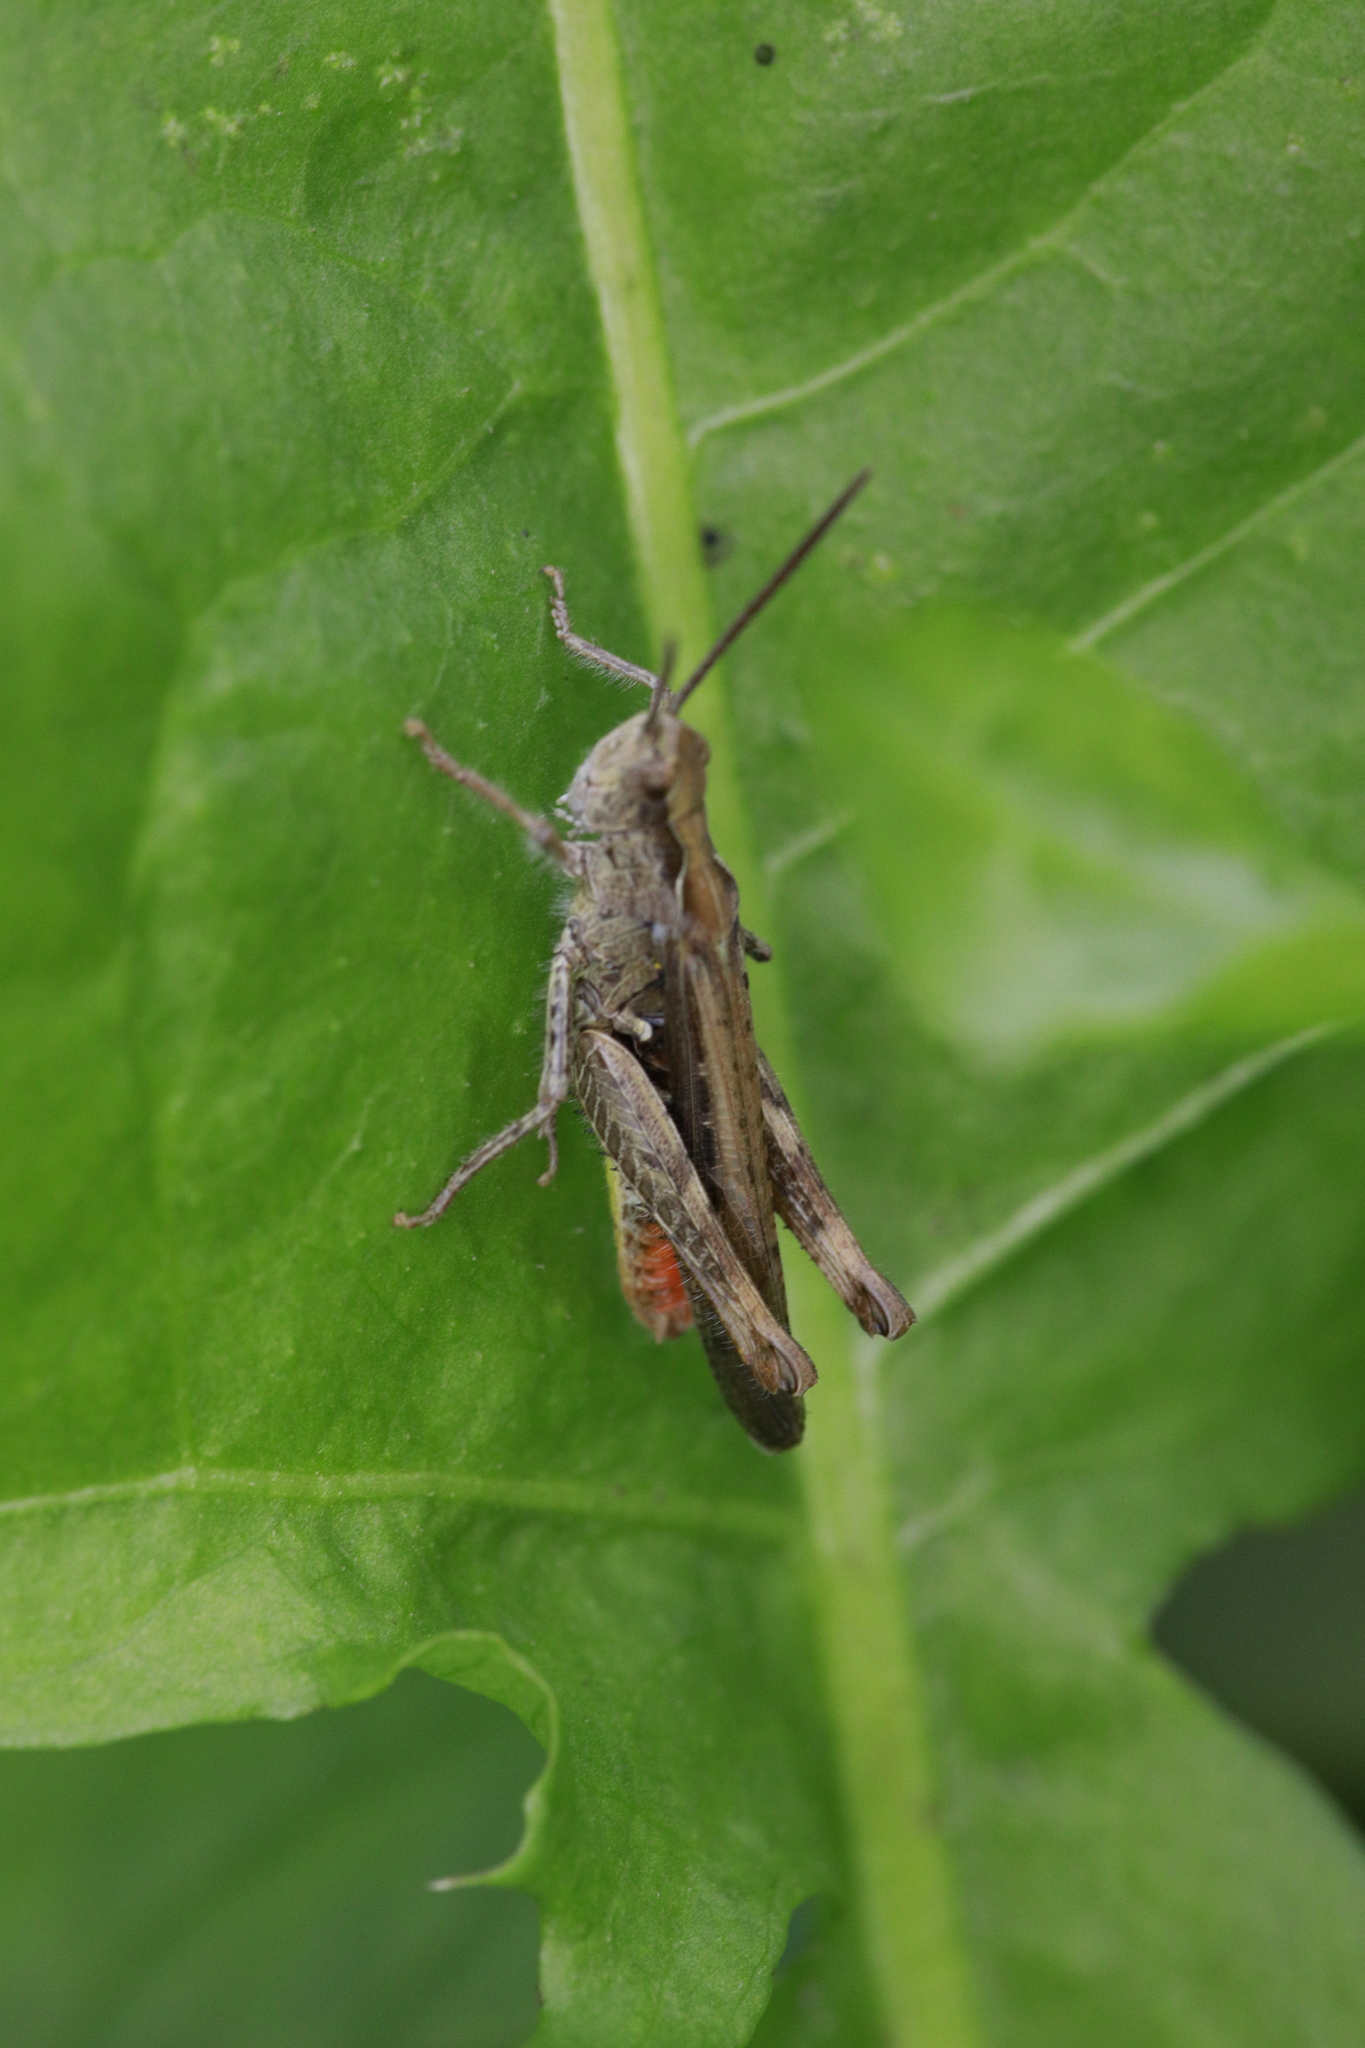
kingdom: Animalia
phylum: Arthropoda
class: Insecta
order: Orthoptera
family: Acrididae
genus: Chorthippus
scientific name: Chorthippus brunneus
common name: Field grasshopper
